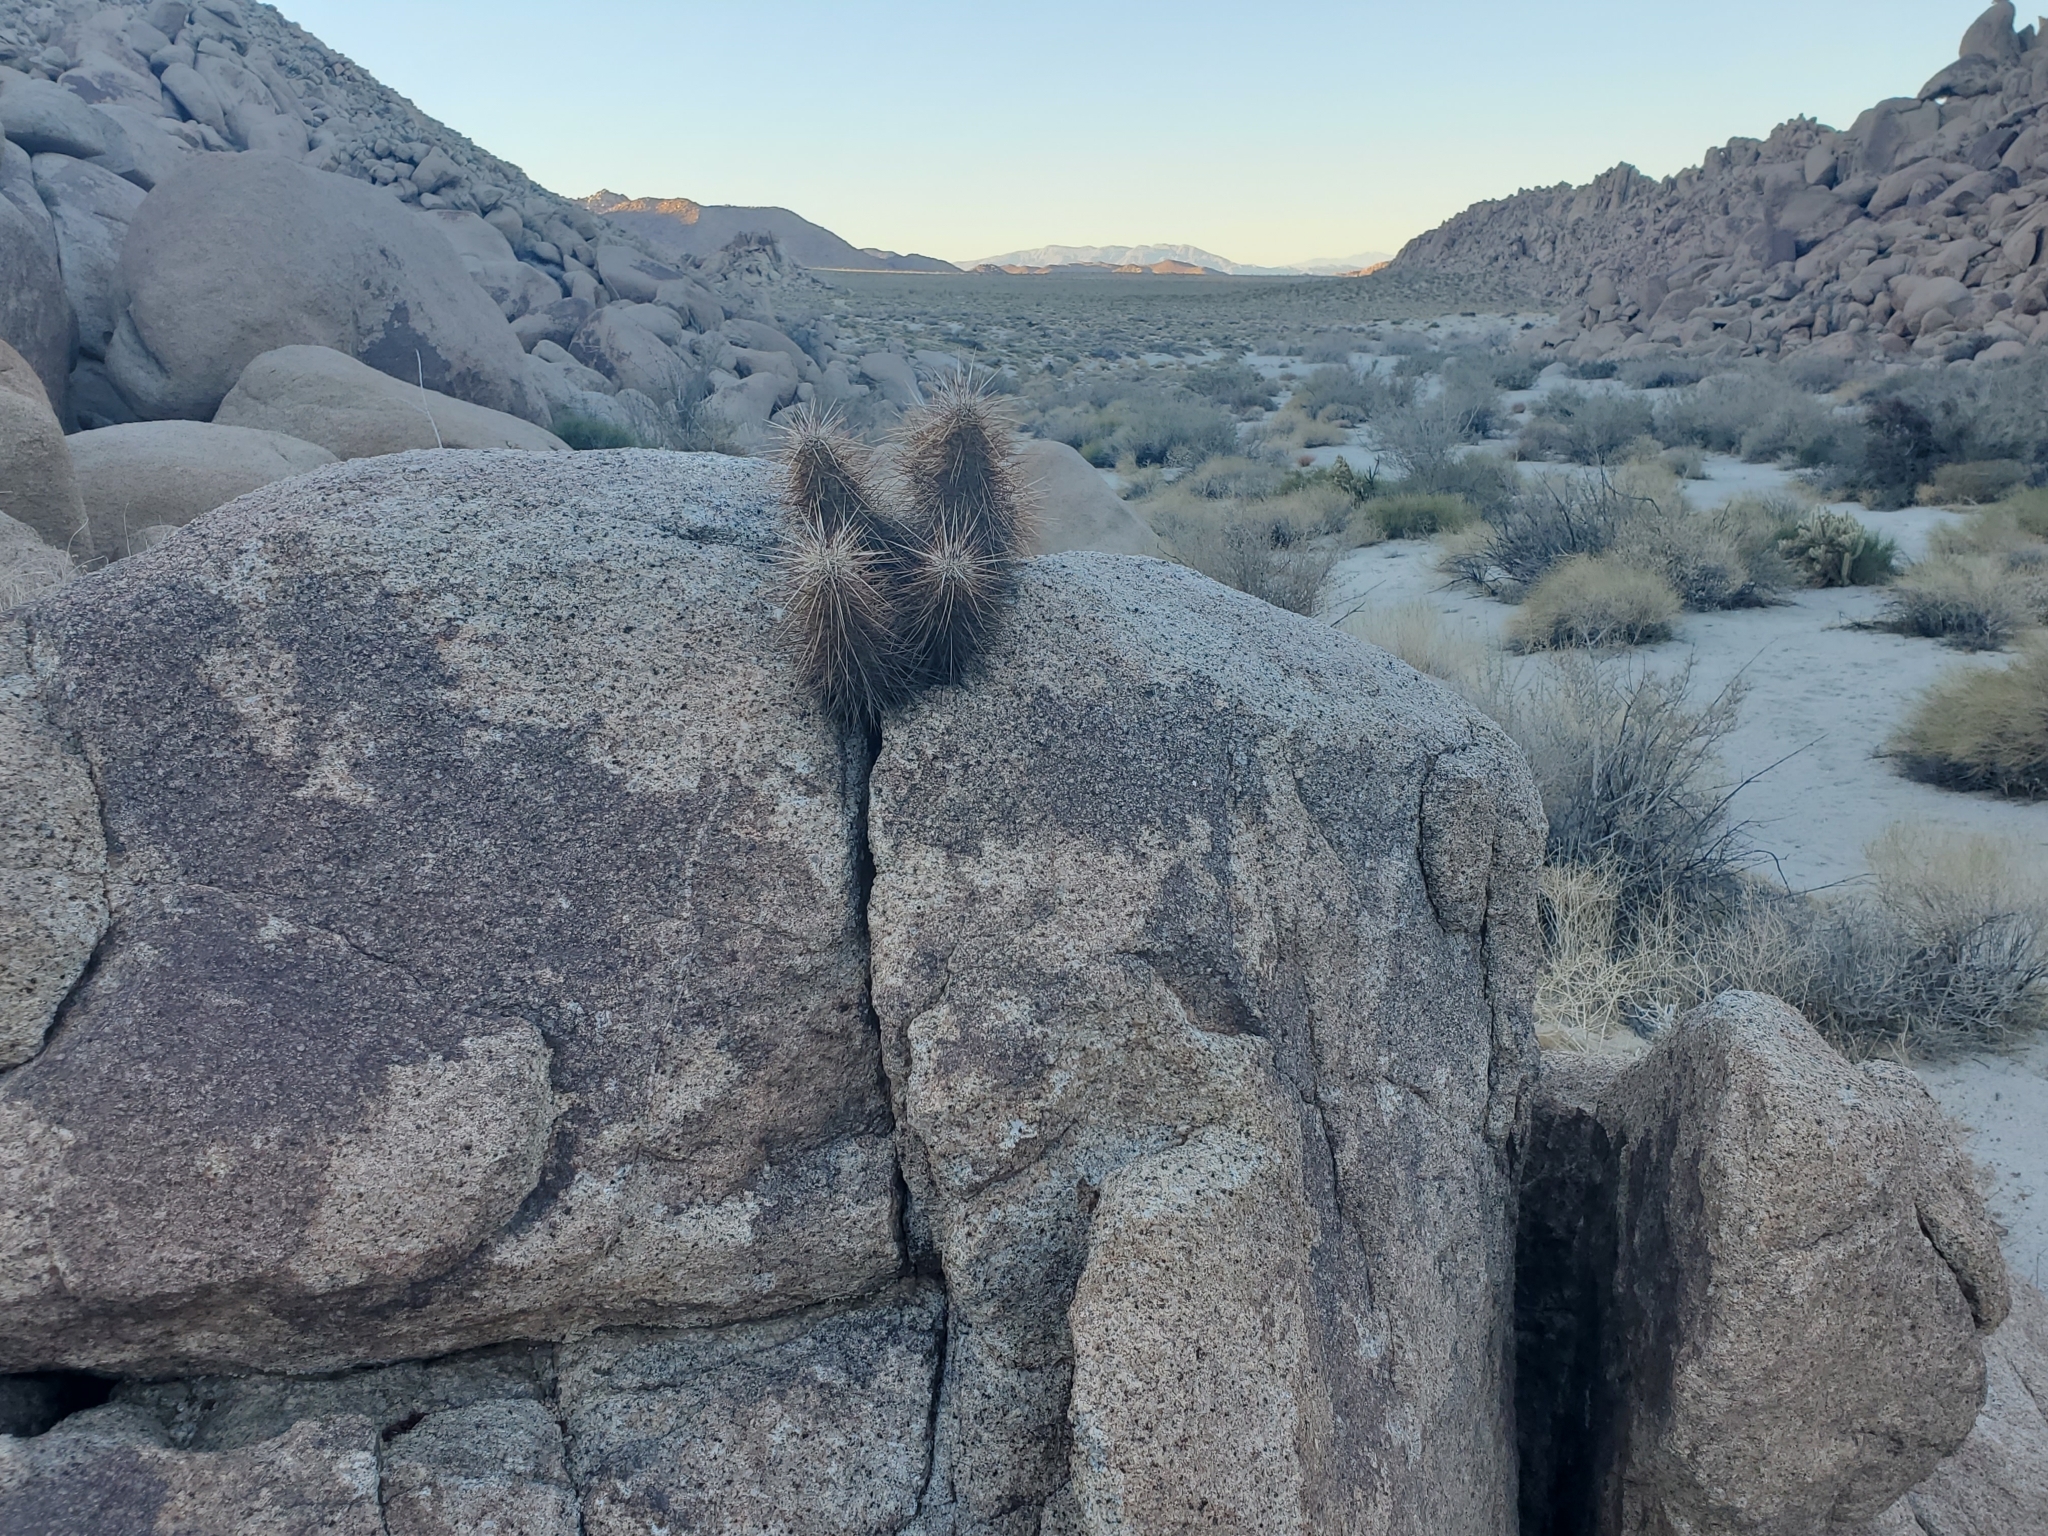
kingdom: Plantae
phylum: Tracheophyta
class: Magnoliopsida
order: Caryophyllales
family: Cactaceae
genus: Echinocereus
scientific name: Echinocereus engelmannii
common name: Engelmann's hedgehog cactus
